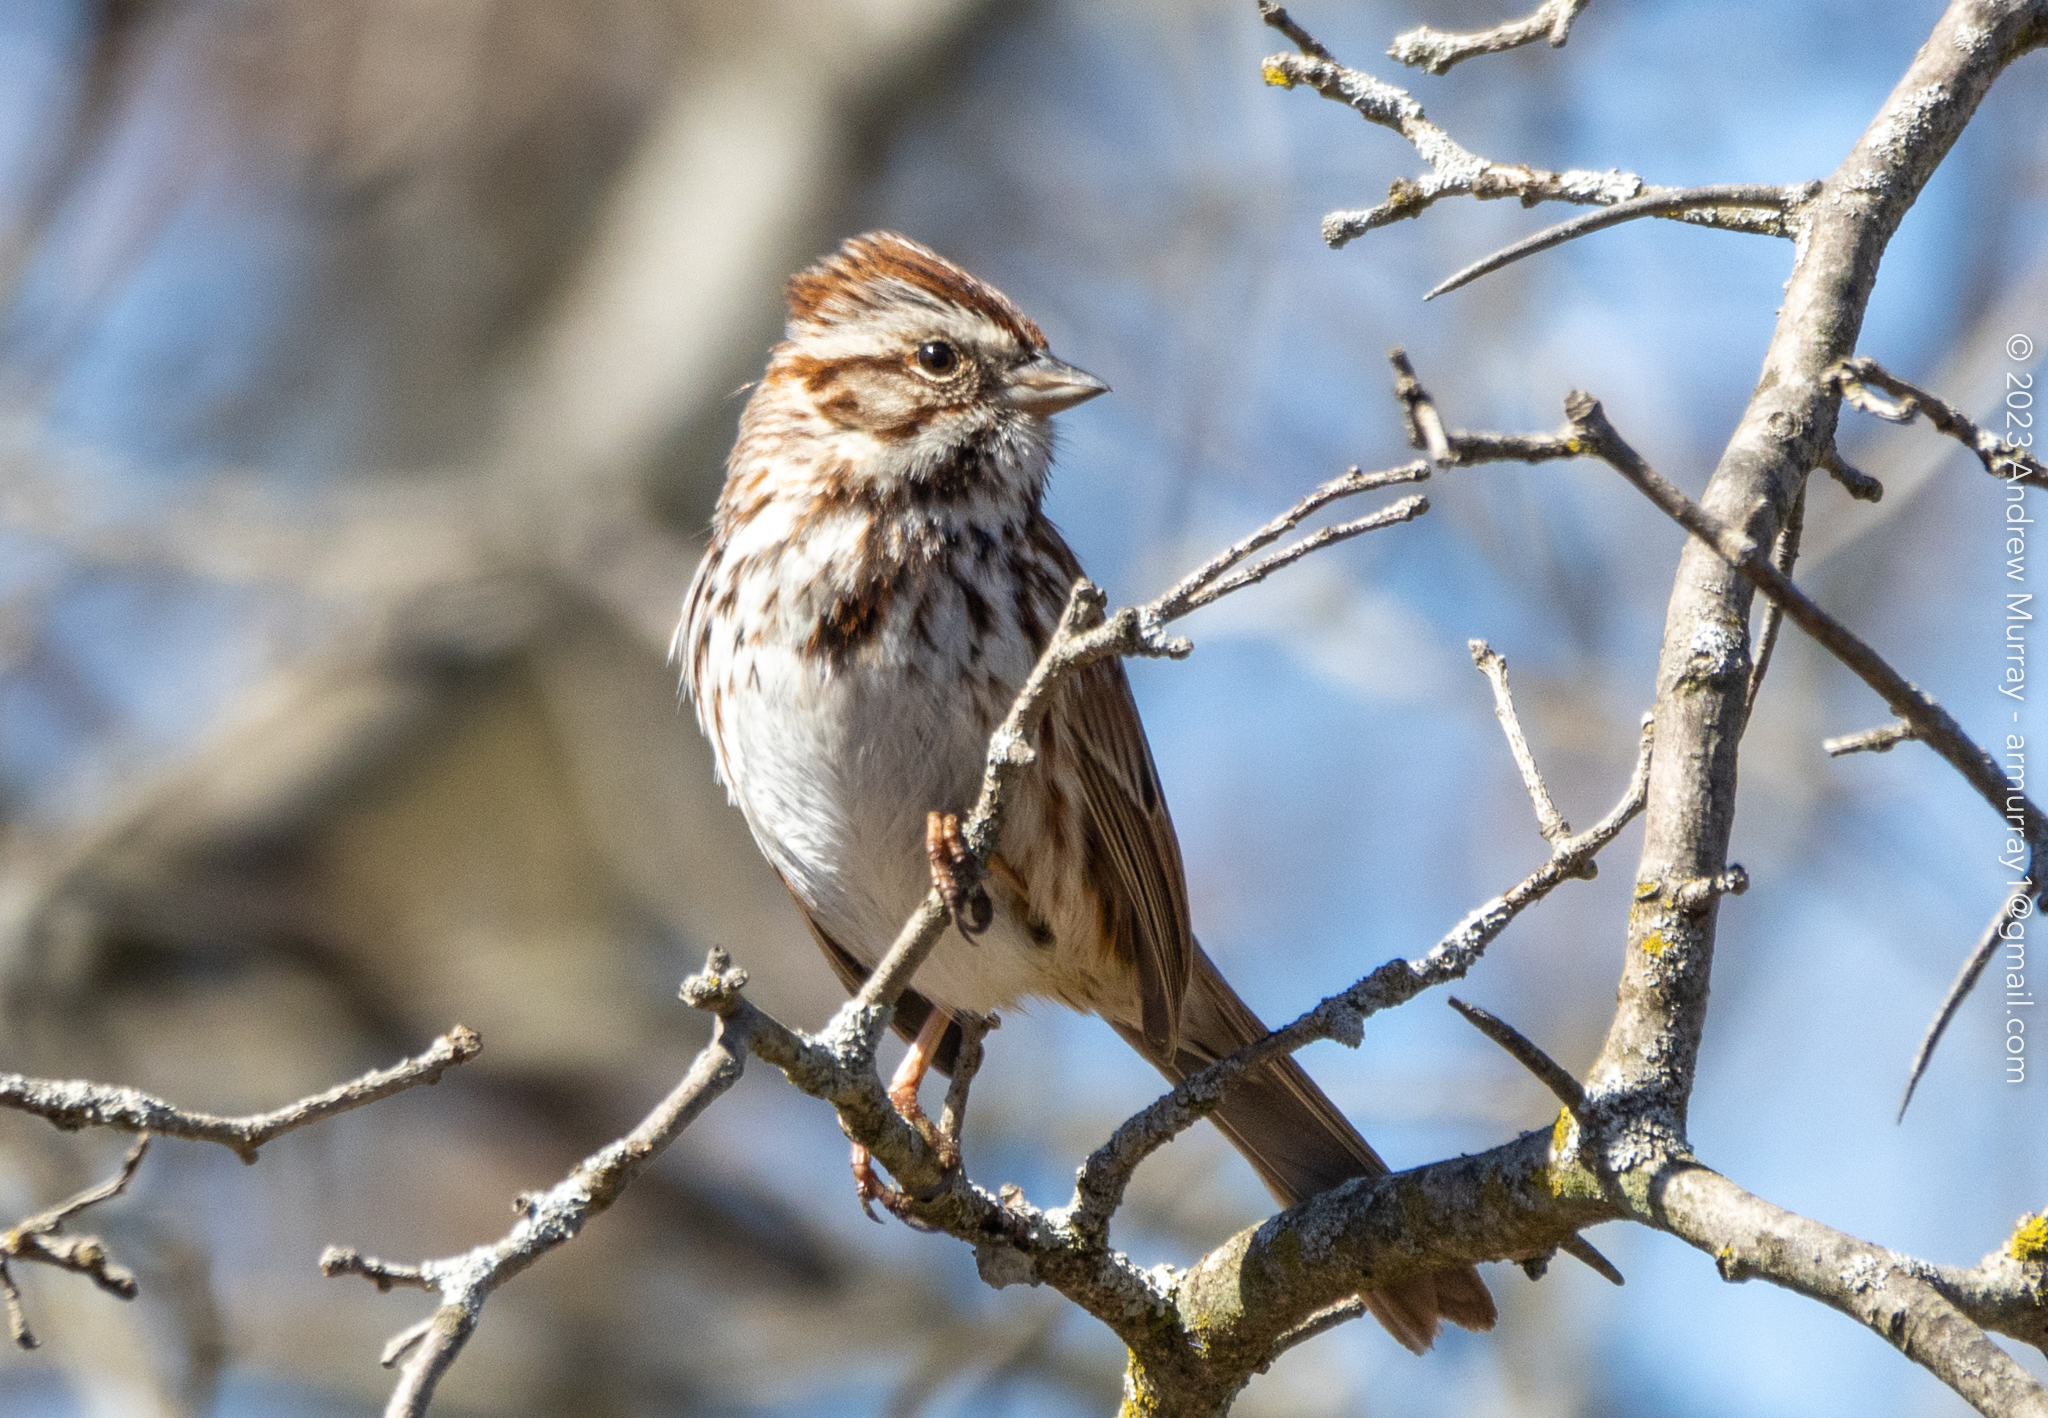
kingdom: Animalia
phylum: Chordata
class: Aves
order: Passeriformes
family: Passerellidae
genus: Melospiza
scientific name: Melospiza melodia
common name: Song sparrow
